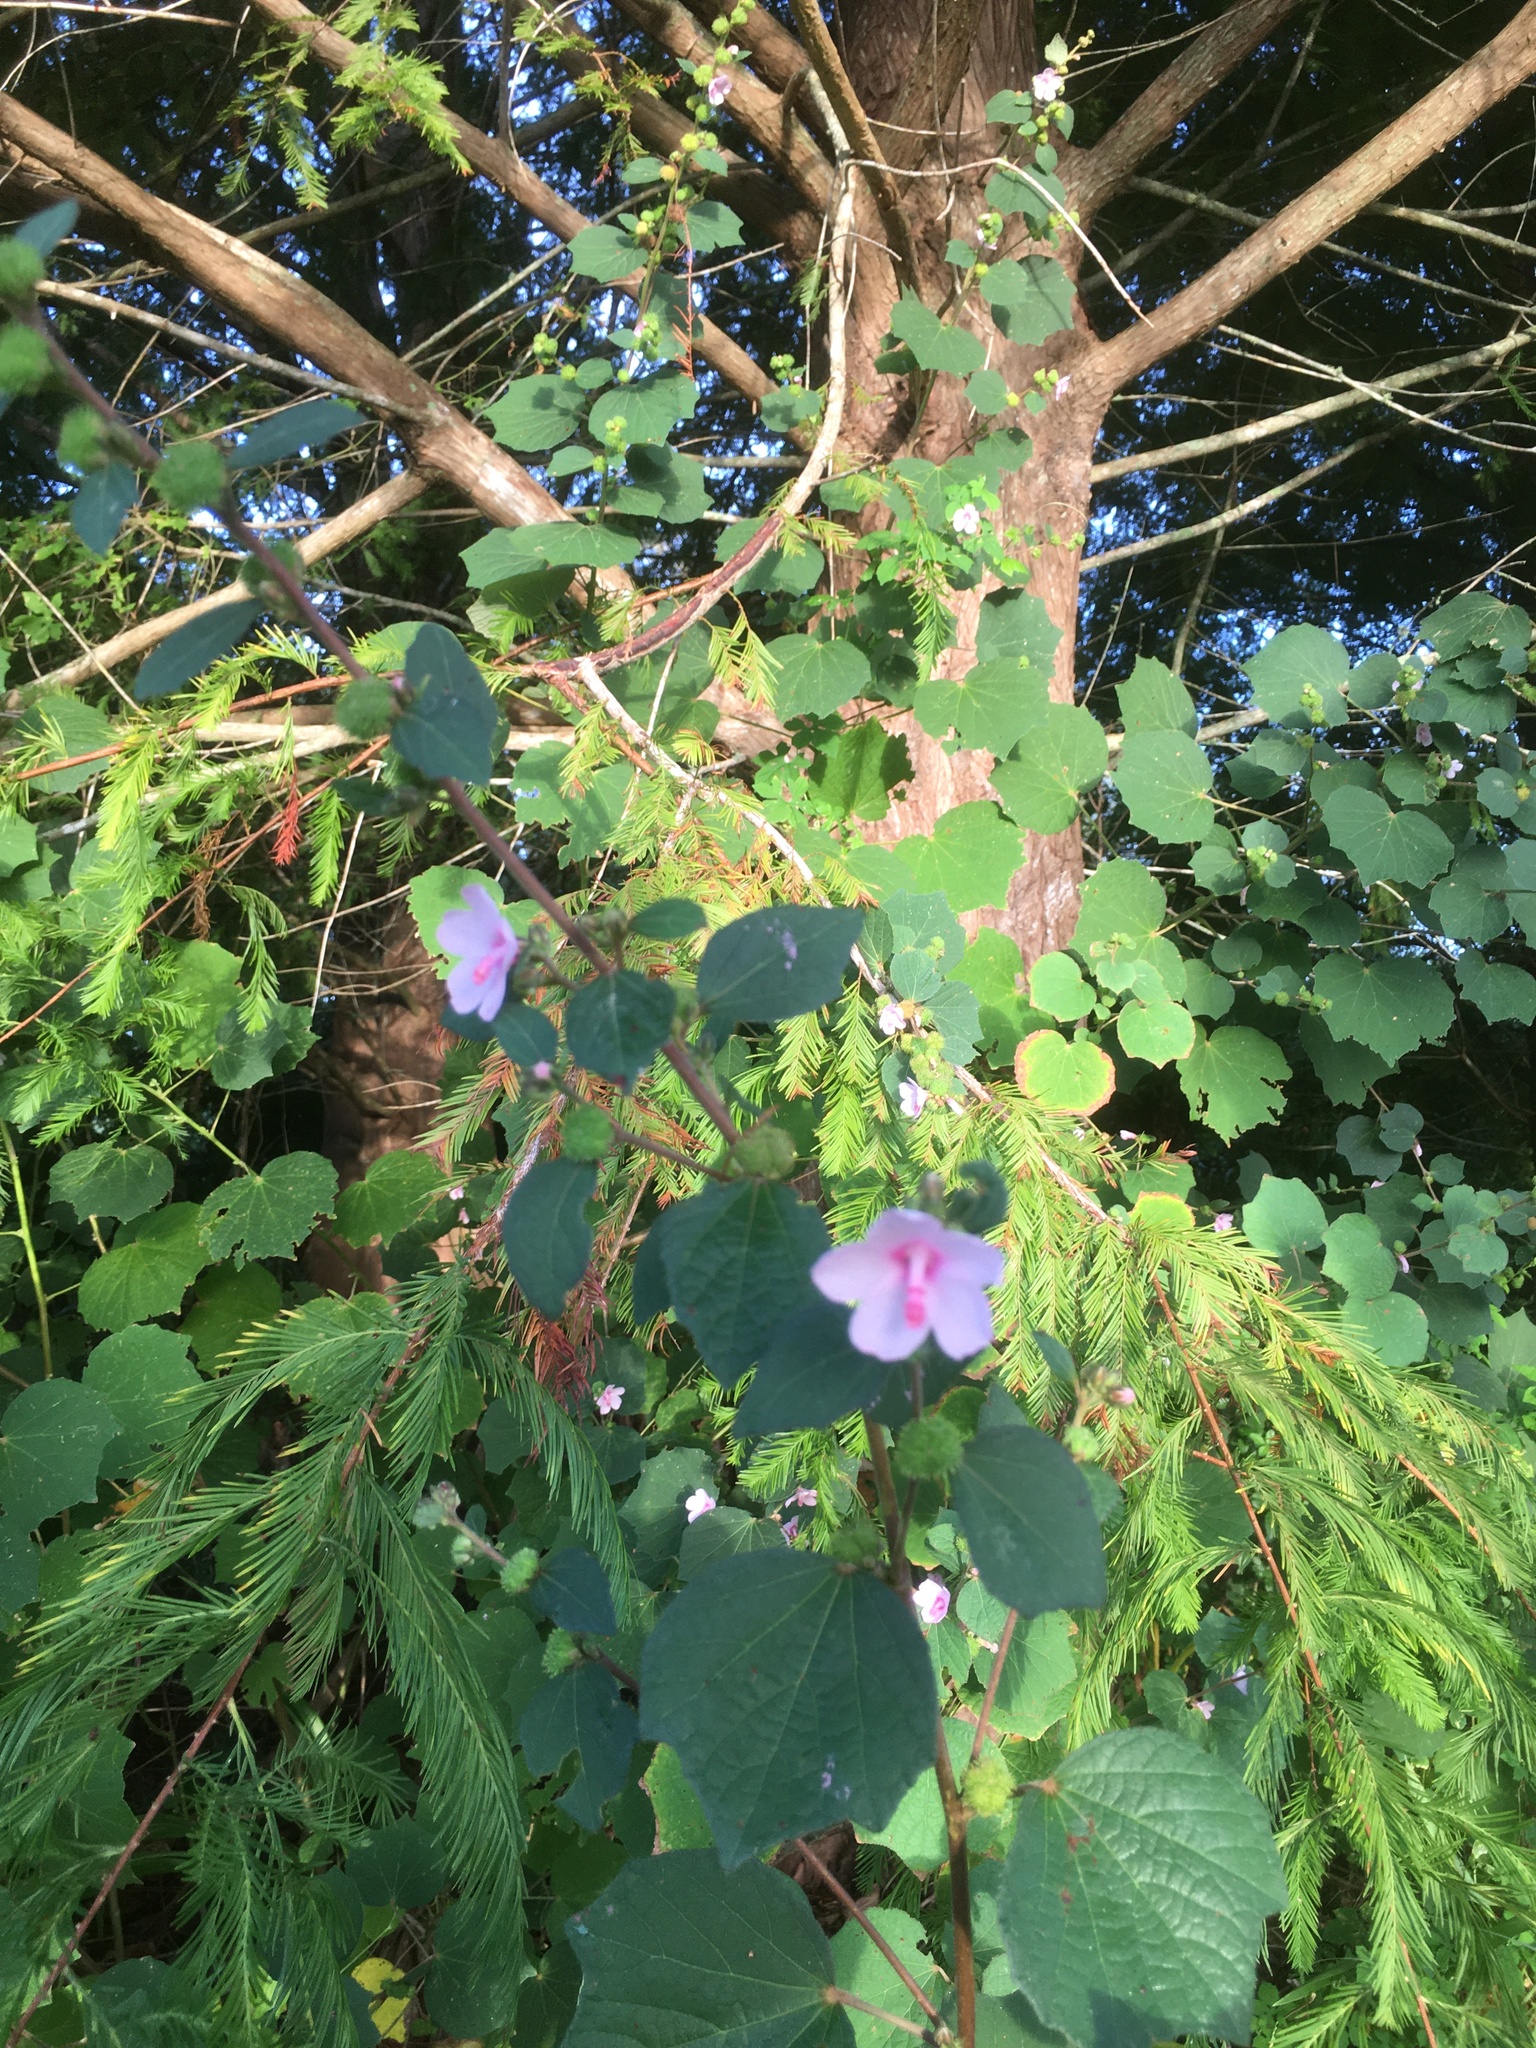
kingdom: Plantae
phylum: Tracheophyta
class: Magnoliopsida
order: Malvales
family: Malvaceae
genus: Urena
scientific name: Urena lobata
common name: Caesarweed
